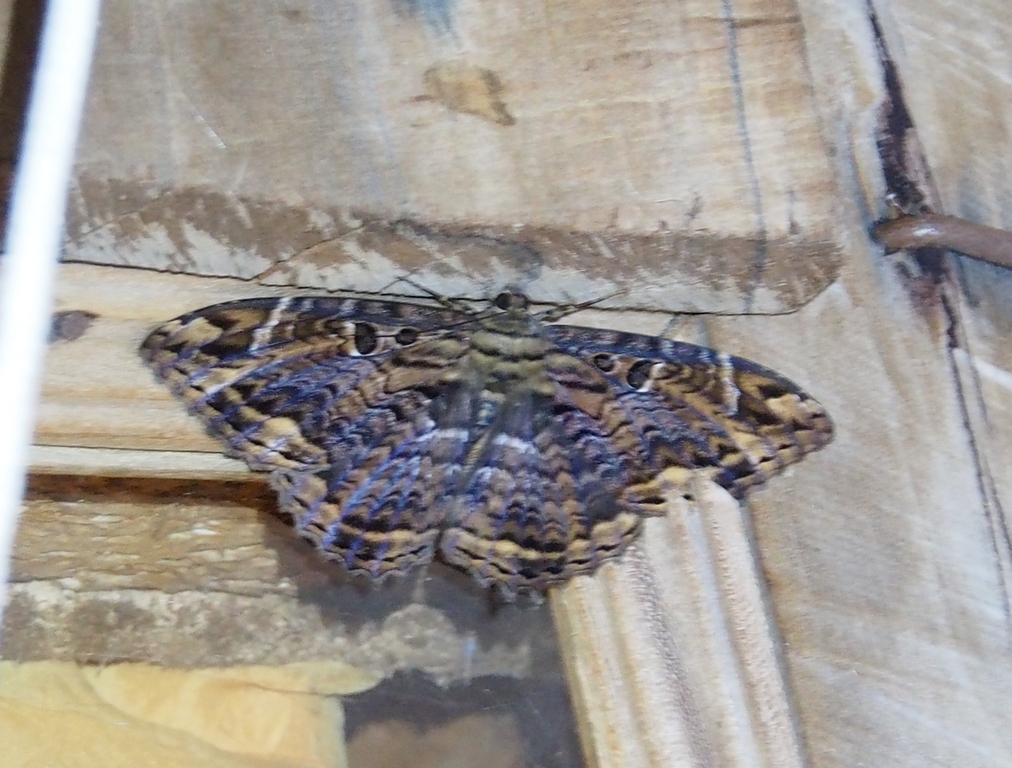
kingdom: Animalia
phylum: Arthropoda
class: Insecta
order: Lepidoptera
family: Erebidae
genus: Feigeria
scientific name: Feigeria
